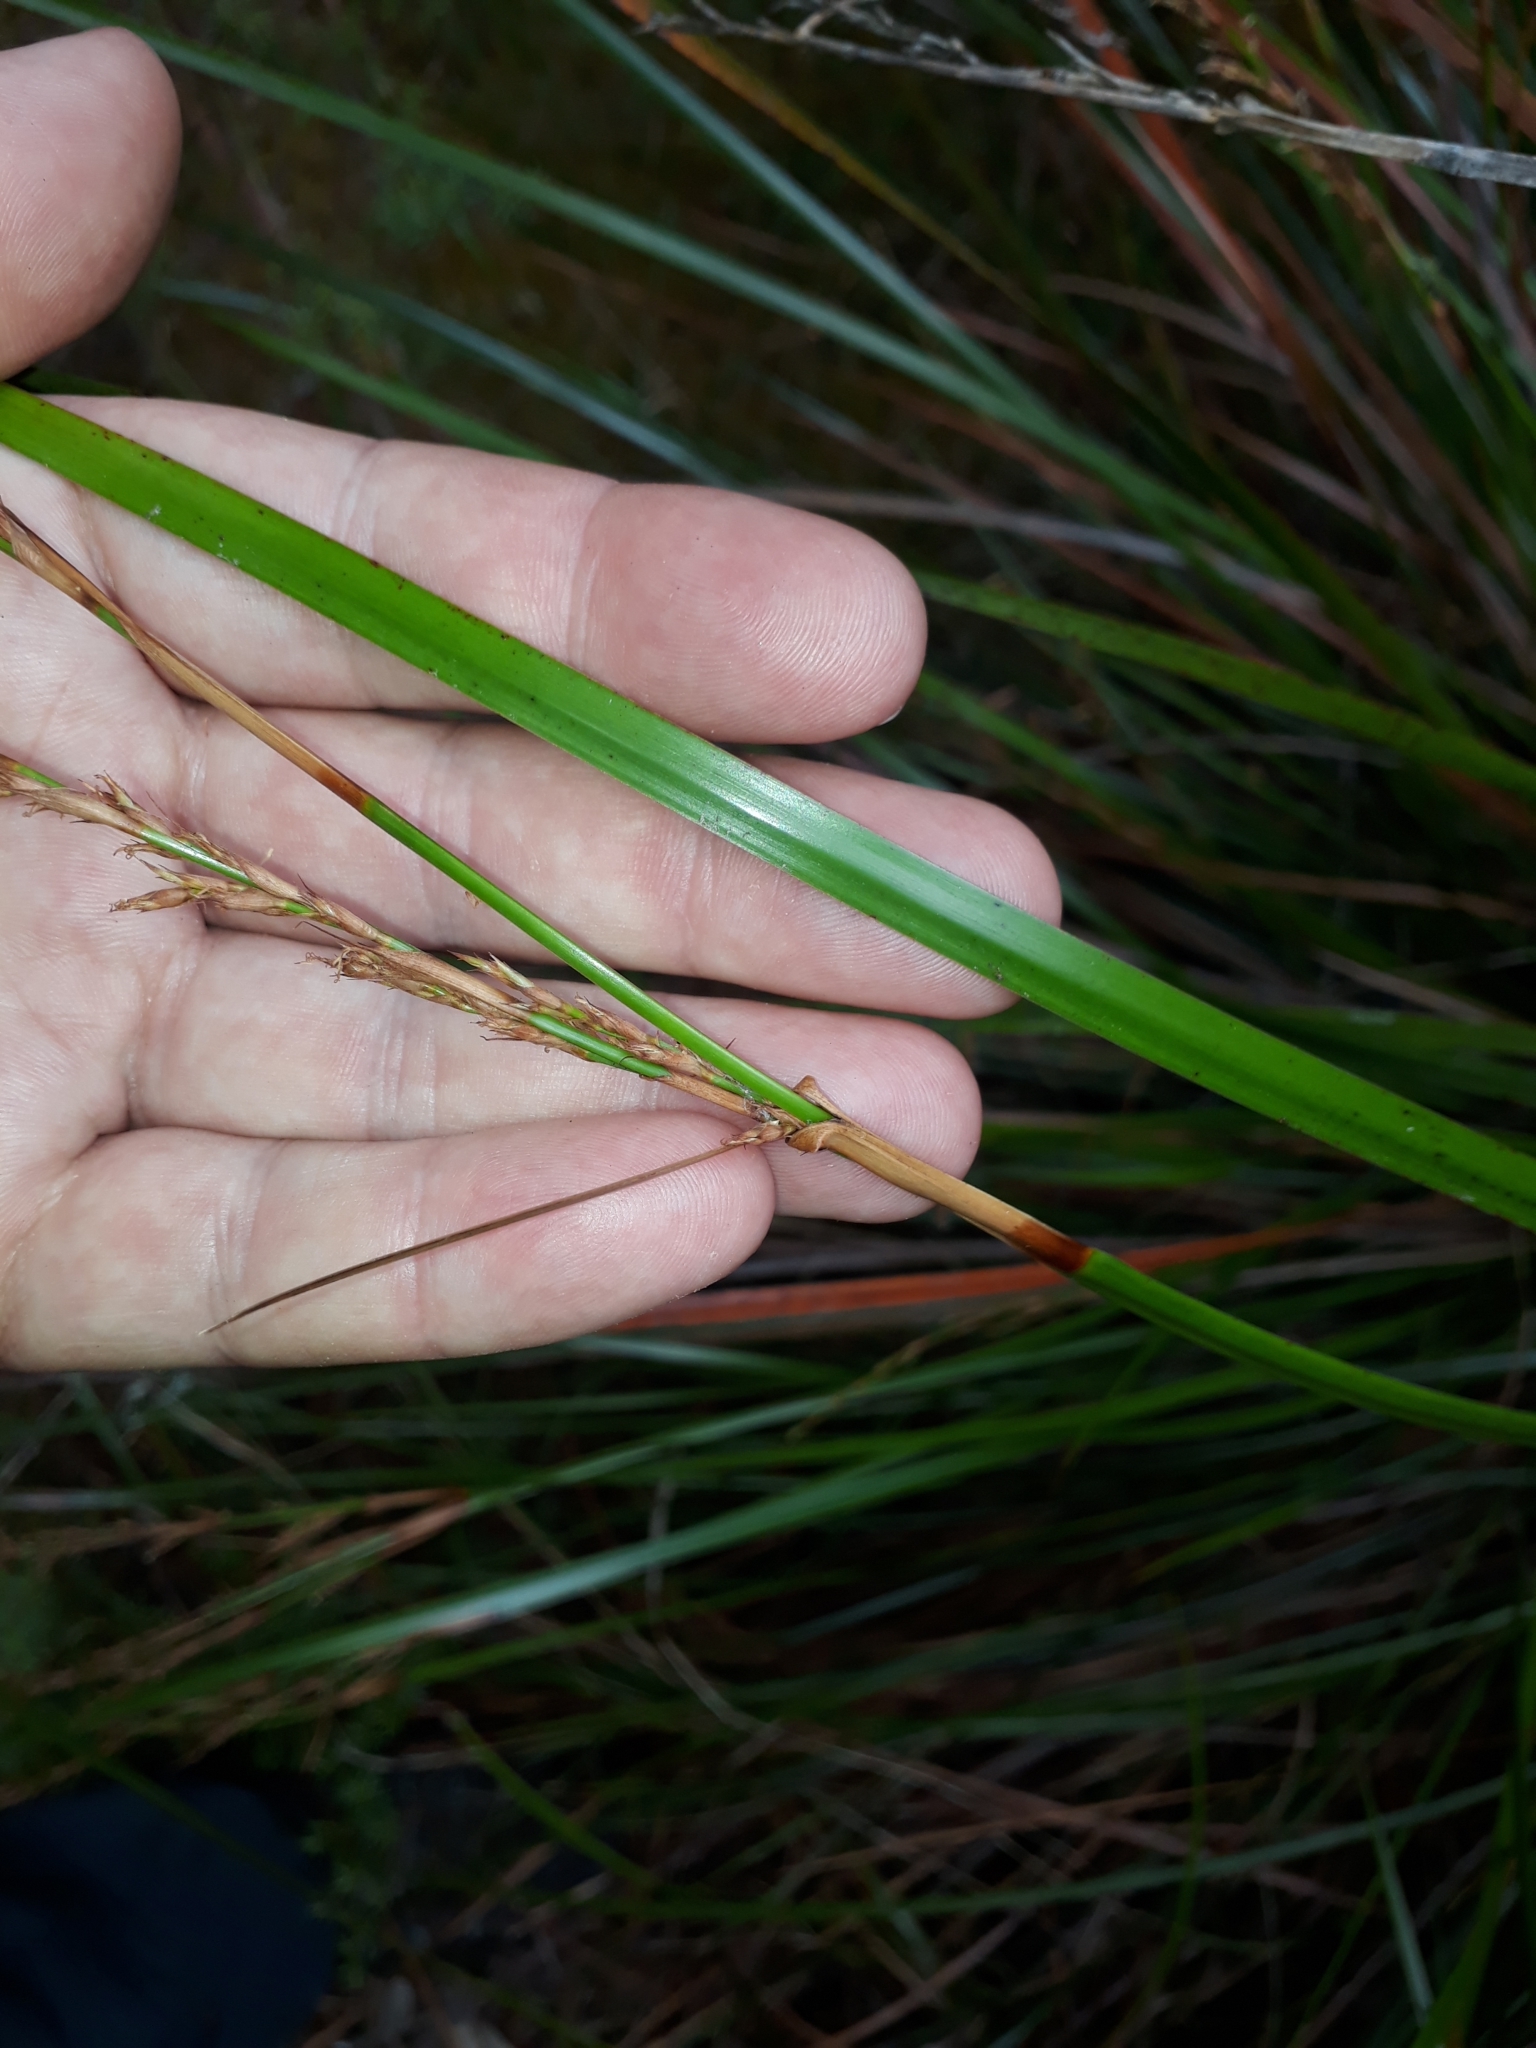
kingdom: Plantae
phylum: Tracheophyta
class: Liliopsida
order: Poales
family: Cyperaceae
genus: Lepidosperma
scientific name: Lepidosperma laterale
